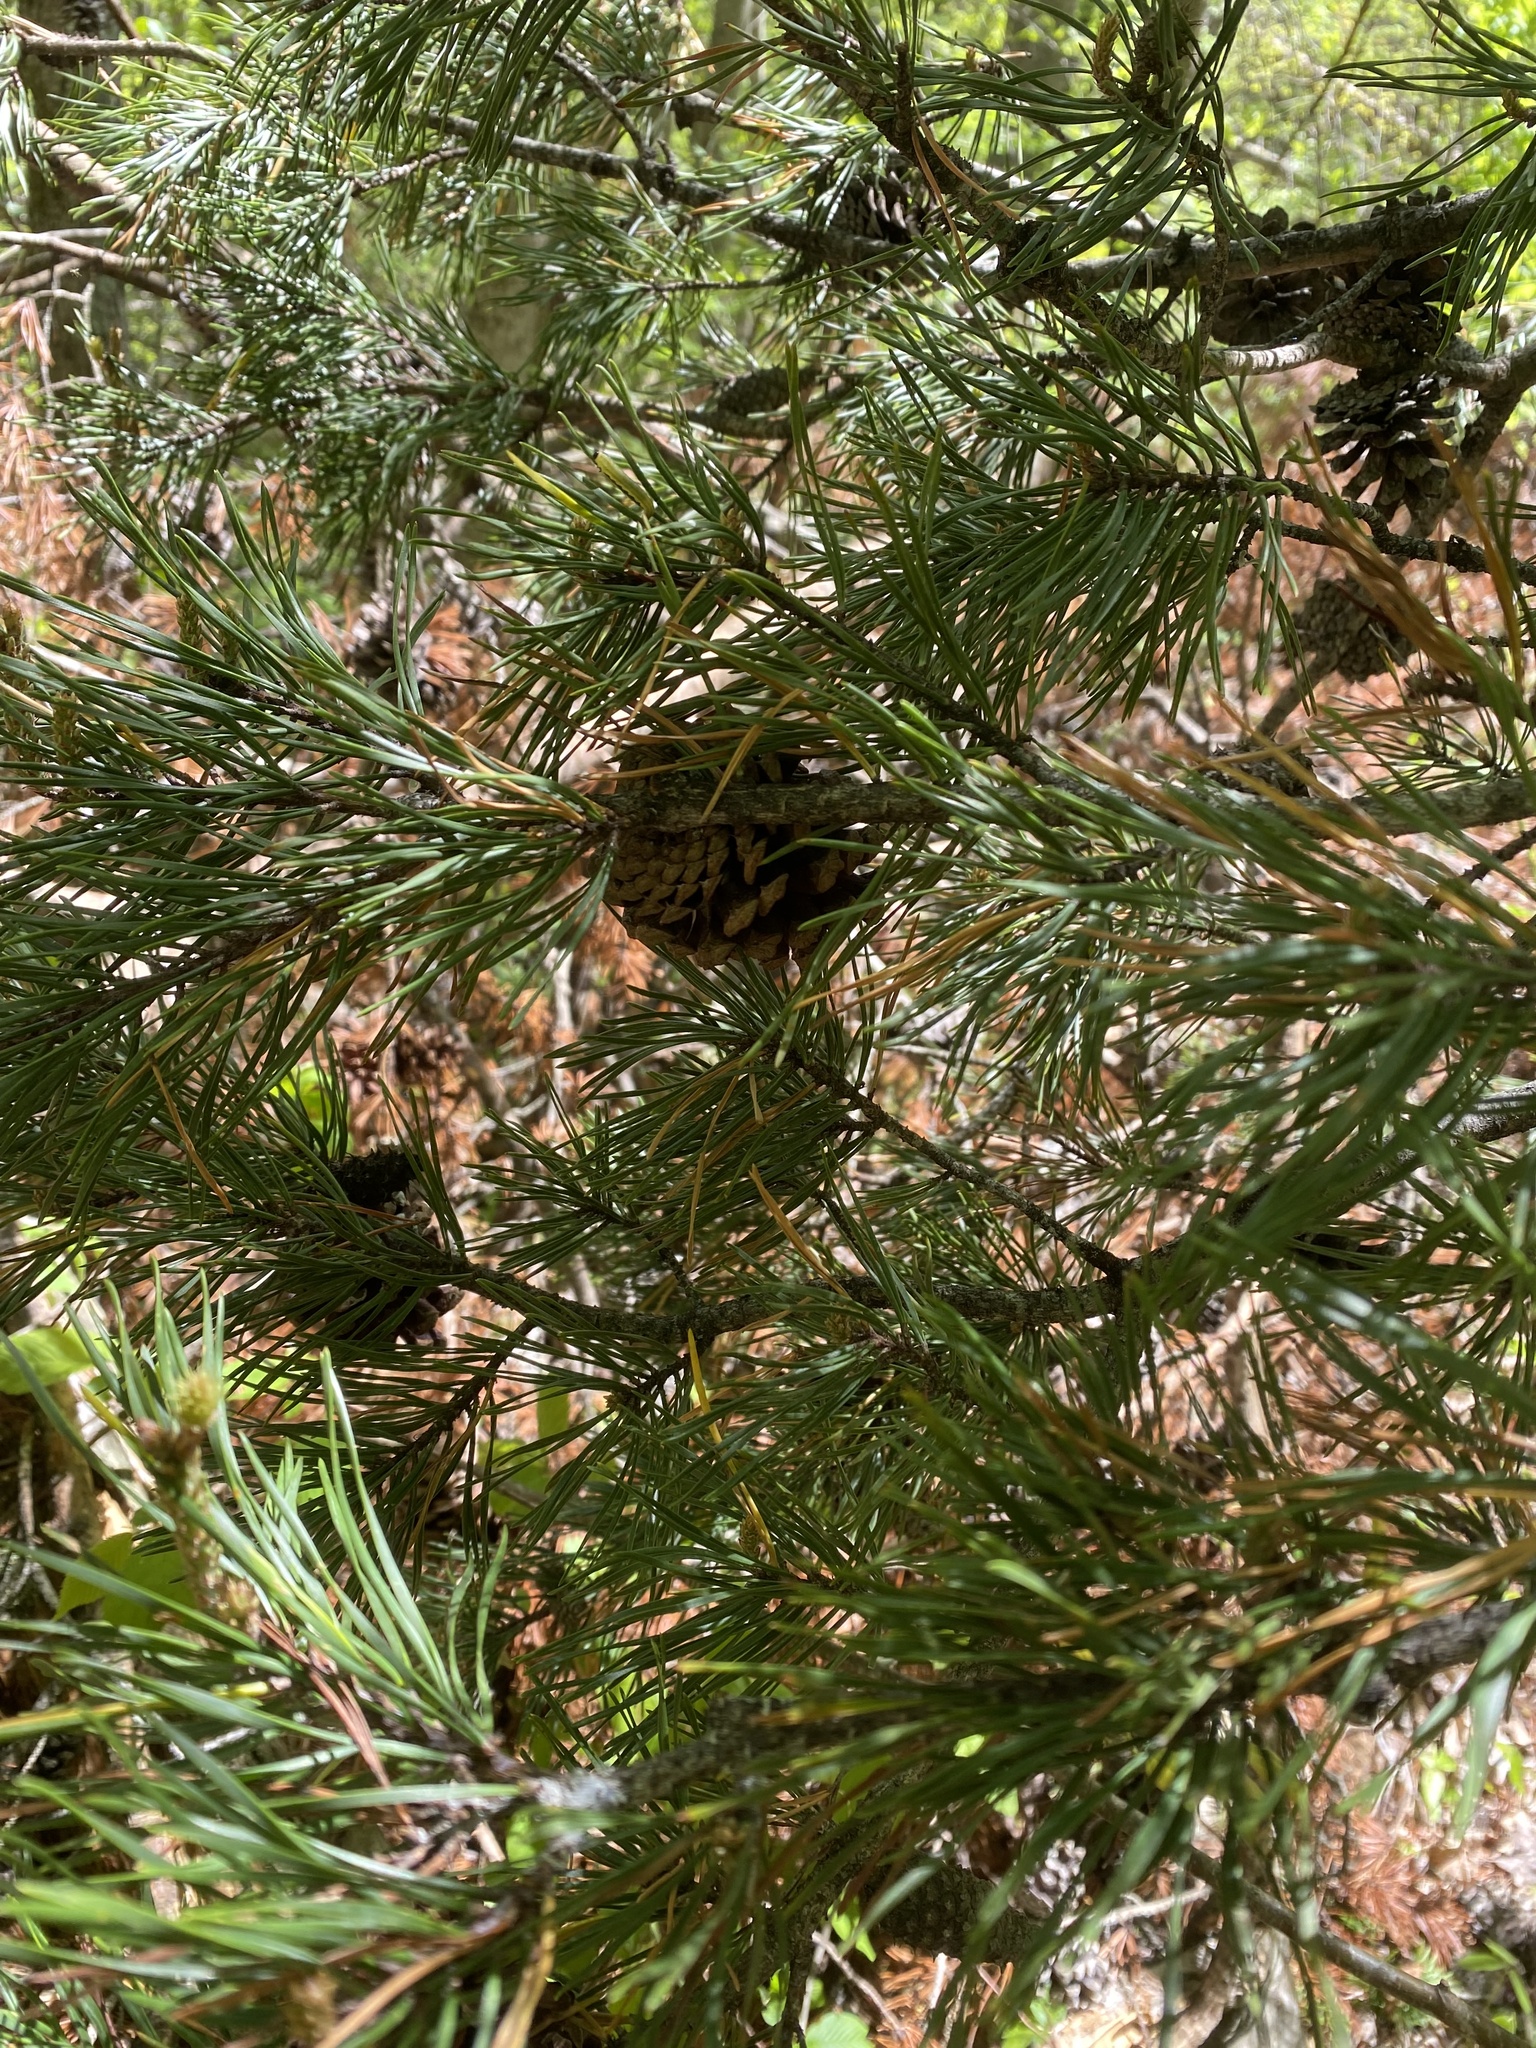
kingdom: Plantae
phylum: Tracheophyta
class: Pinopsida
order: Pinales
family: Pinaceae
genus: Pinus
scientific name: Pinus virginiana
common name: Scrub pine
